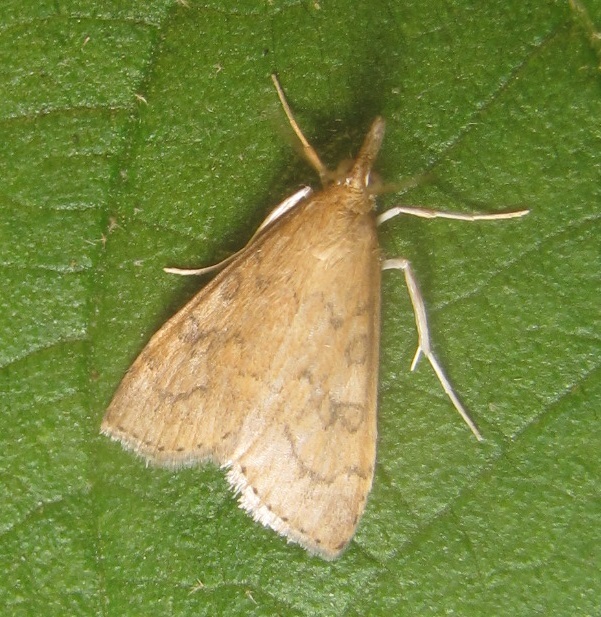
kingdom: Animalia
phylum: Arthropoda
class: Insecta
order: Lepidoptera
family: Crambidae
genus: Udea
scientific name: Udea rubigalis
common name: Celery leaftier moth
